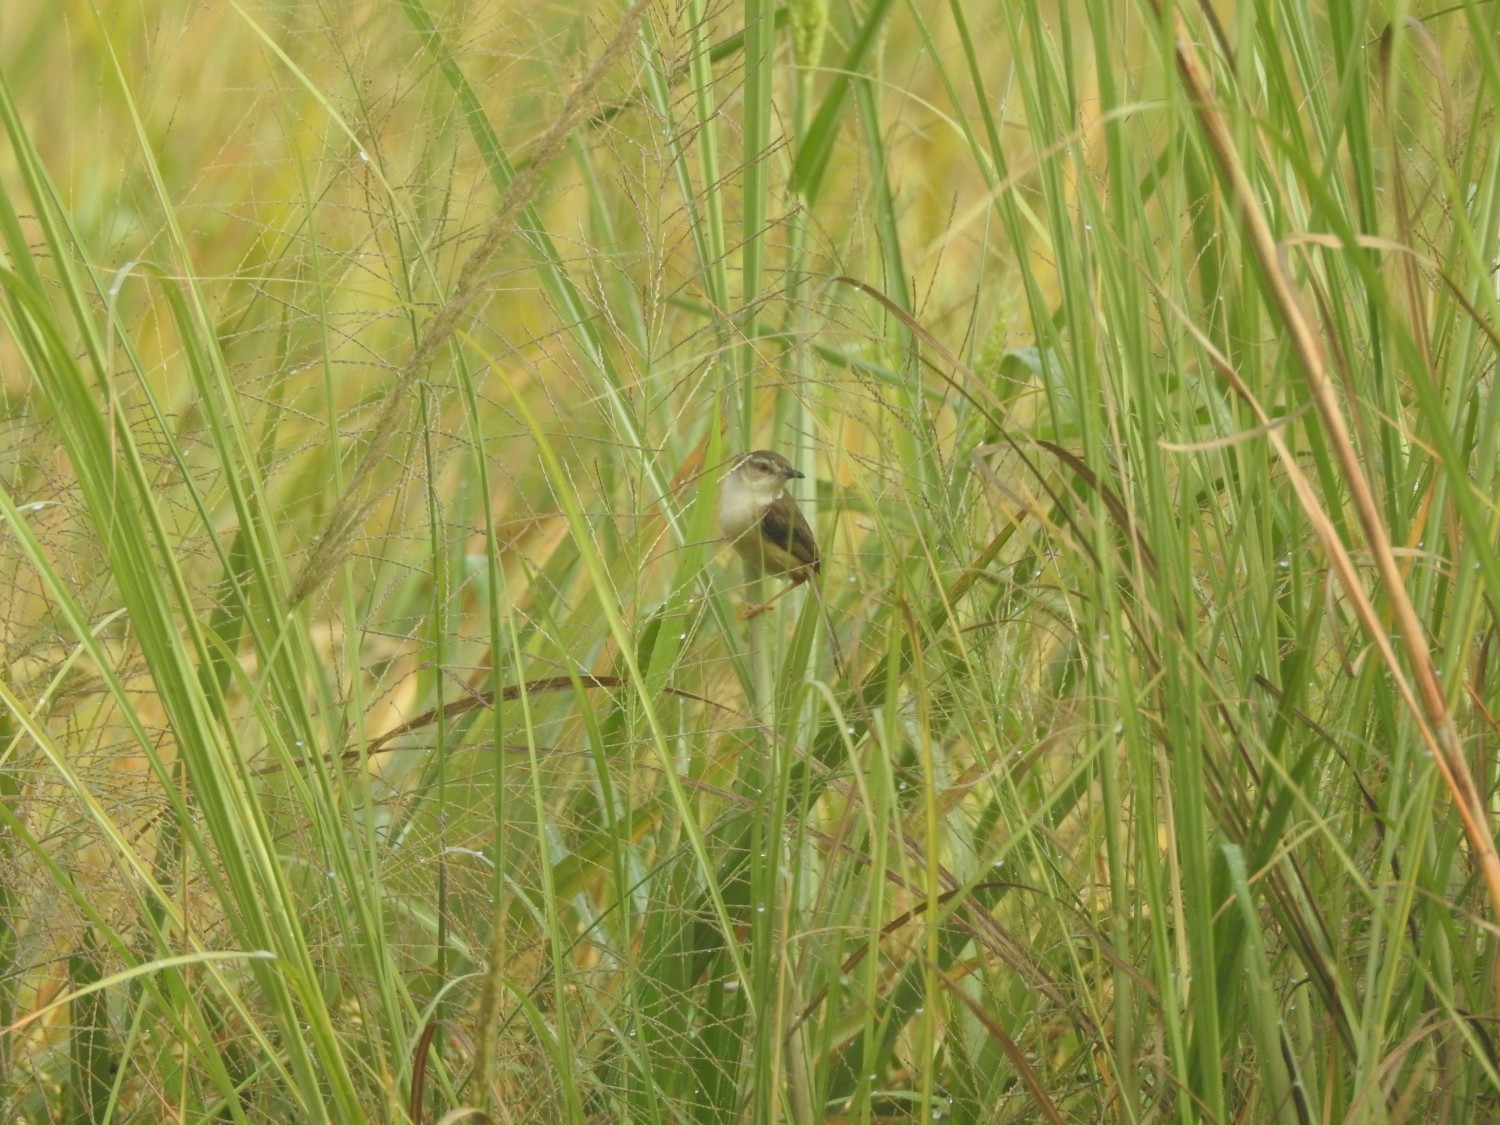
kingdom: Animalia
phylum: Chordata
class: Aves
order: Passeriformes
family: Cisticolidae
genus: Prinia
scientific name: Prinia inornata
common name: Plain prinia
